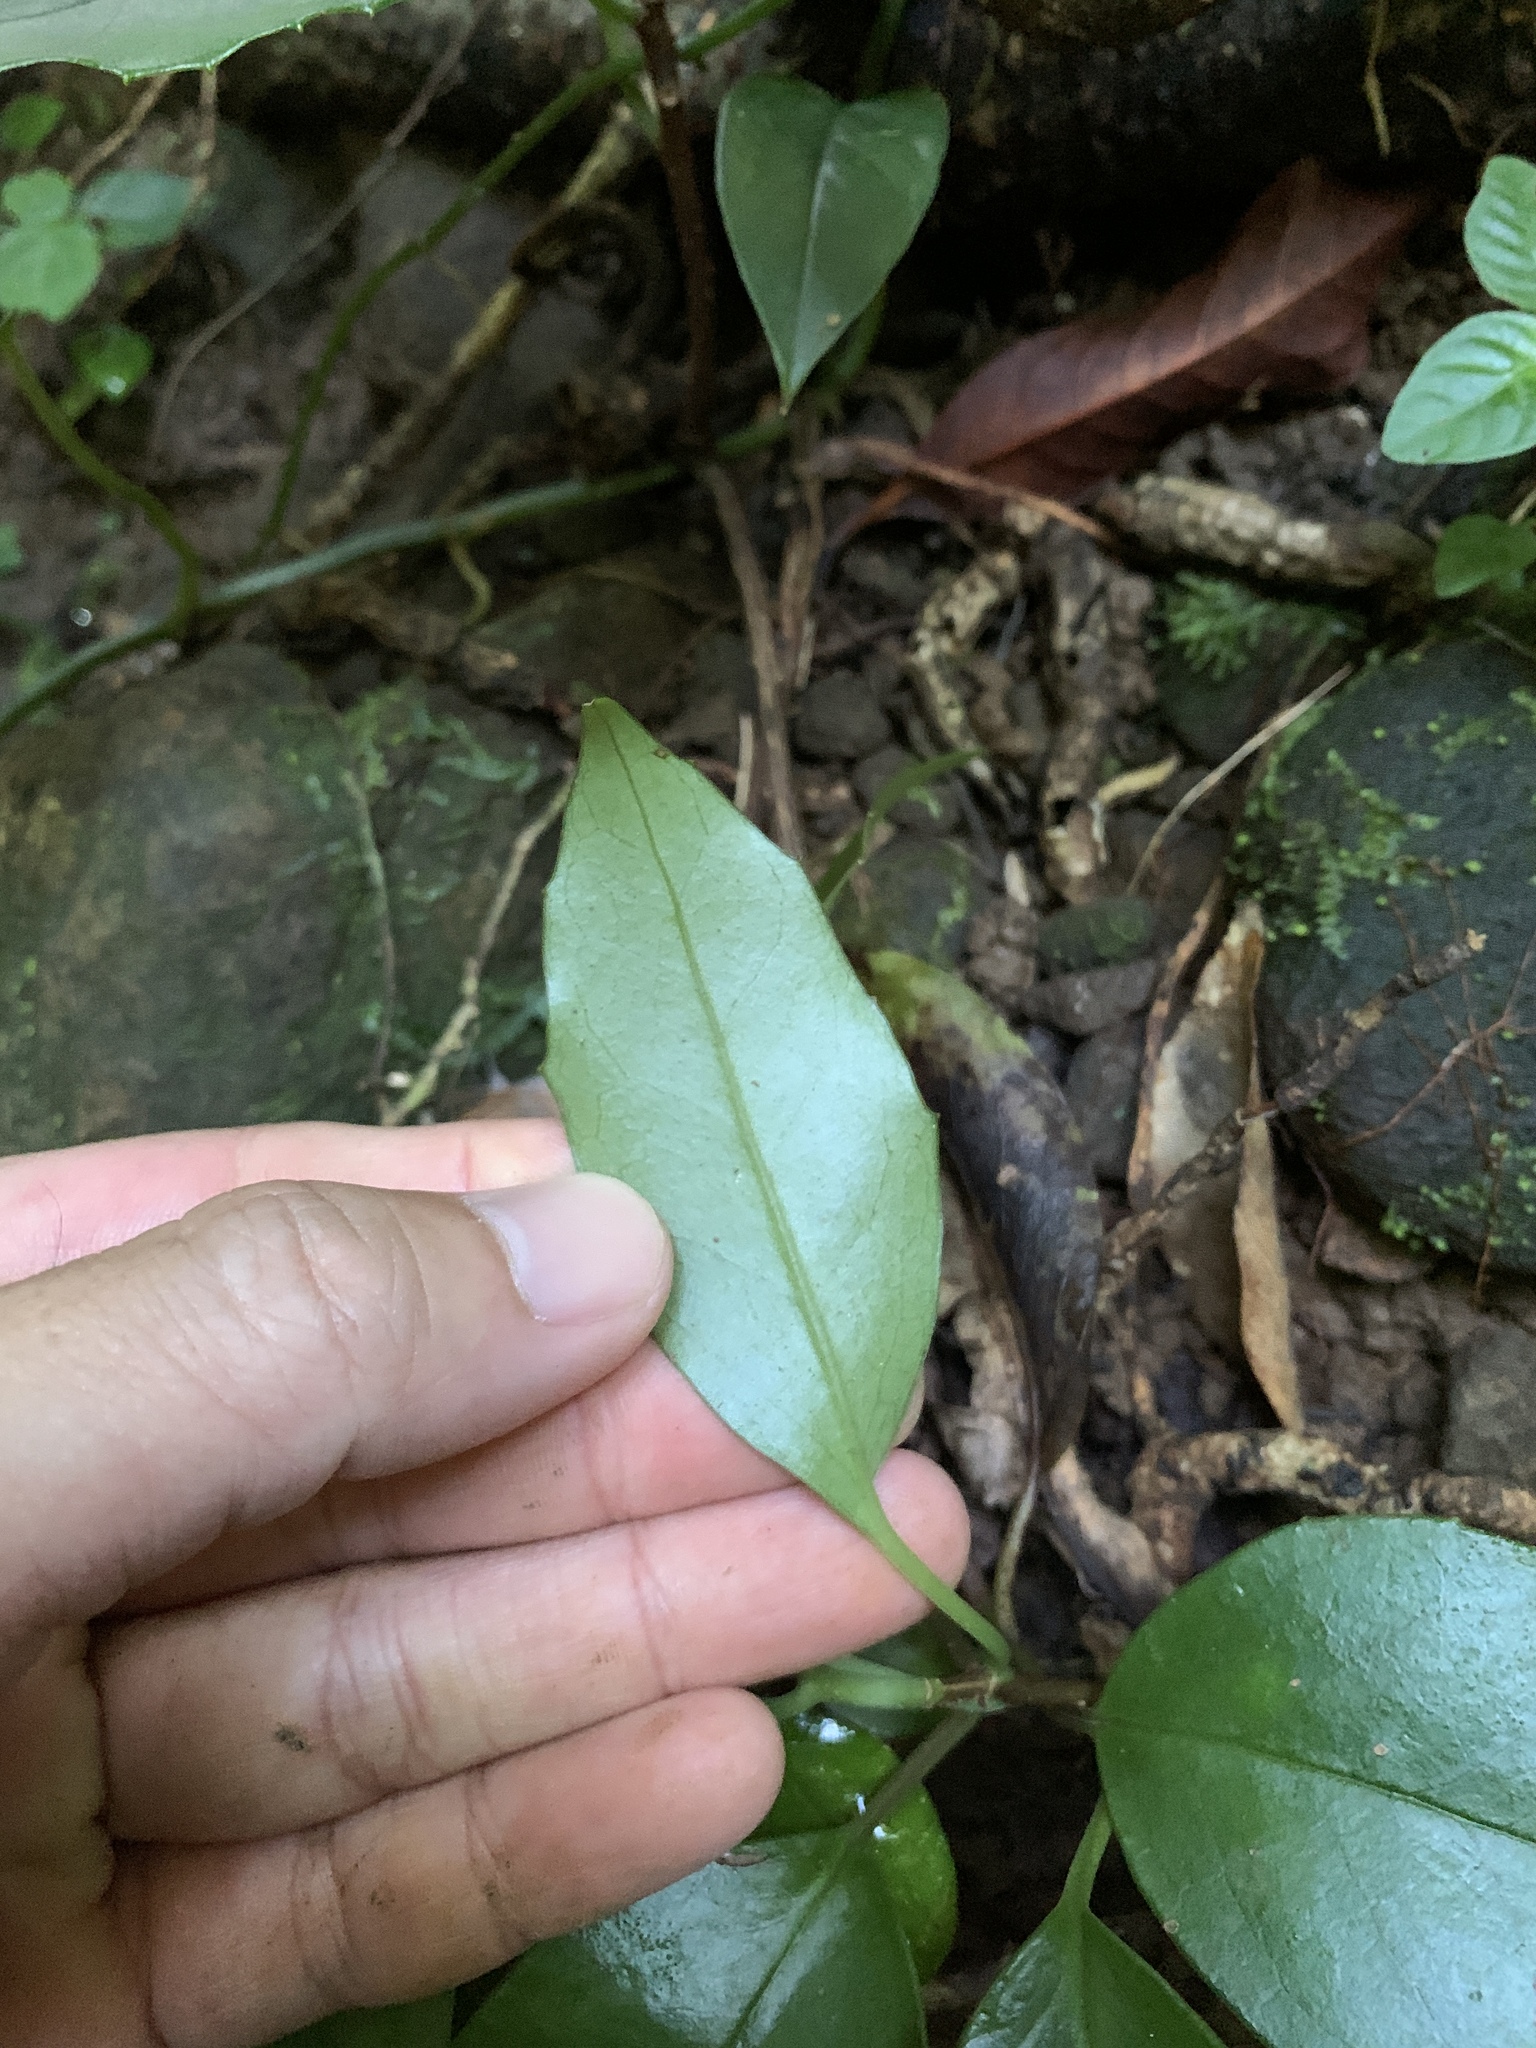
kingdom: Plantae
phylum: Tracheophyta
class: Magnoliopsida
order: Austrobaileyales
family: Schisandraceae
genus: Kadsura
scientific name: Kadsura matsudae
